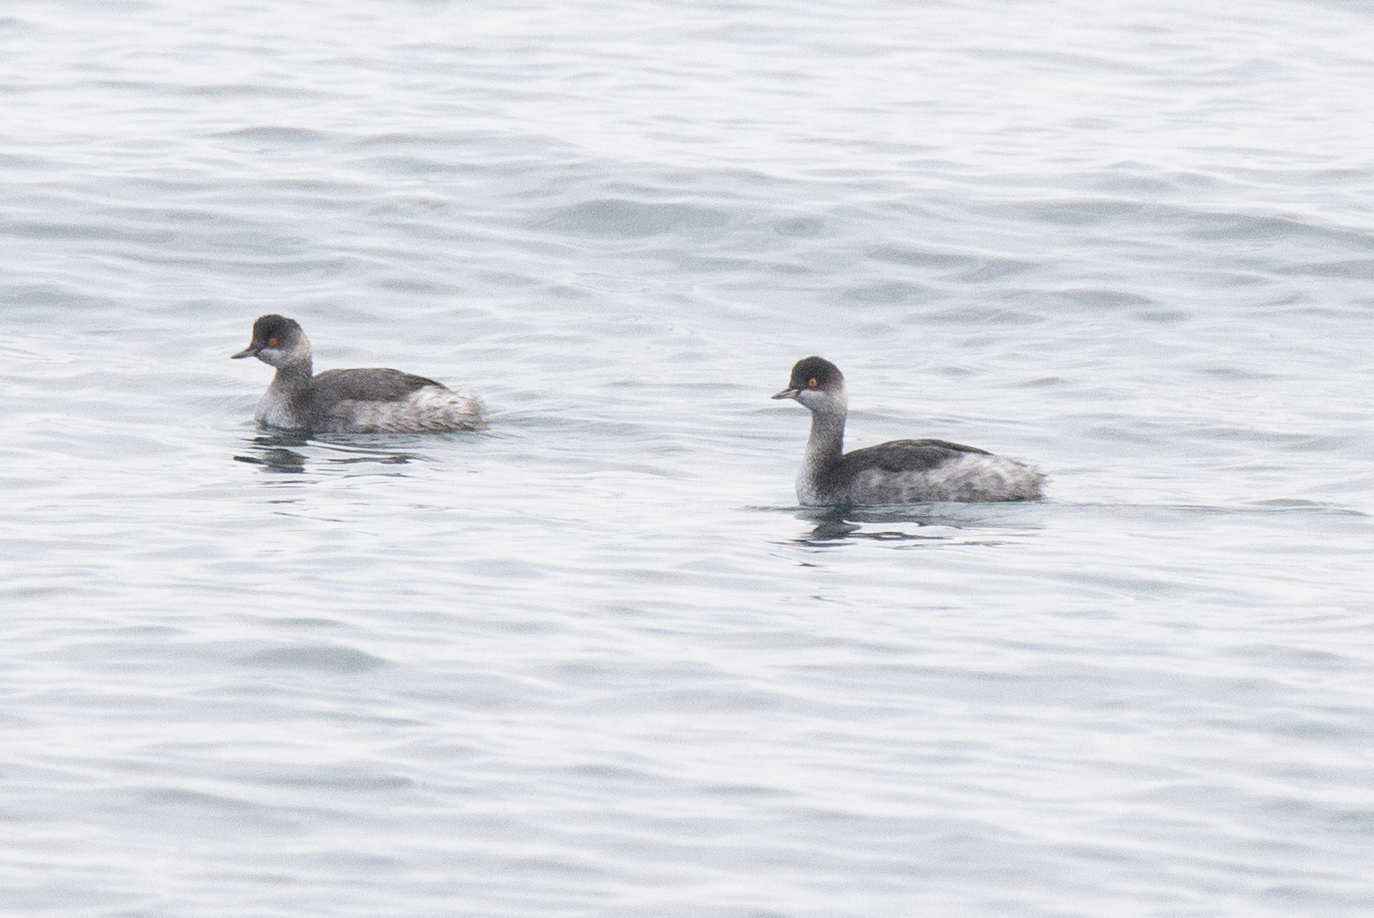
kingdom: Animalia
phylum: Chordata
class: Aves
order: Podicipediformes
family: Podicipedidae
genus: Podiceps
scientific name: Podiceps nigricollis
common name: Black-necked grebe
